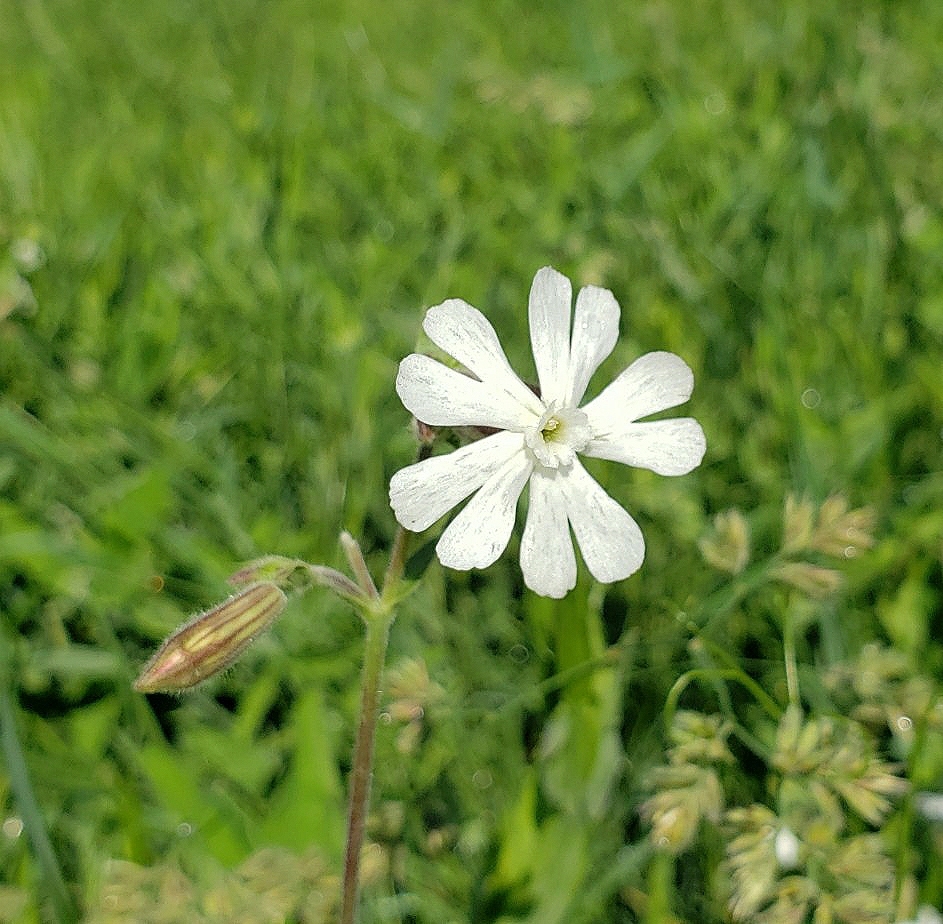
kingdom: Plantae
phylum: Tracheophyta
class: Magnoliopsida
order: Caryophyllales
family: Caryophyllaceae
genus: Silene
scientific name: Silene latifolia
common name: White campion
